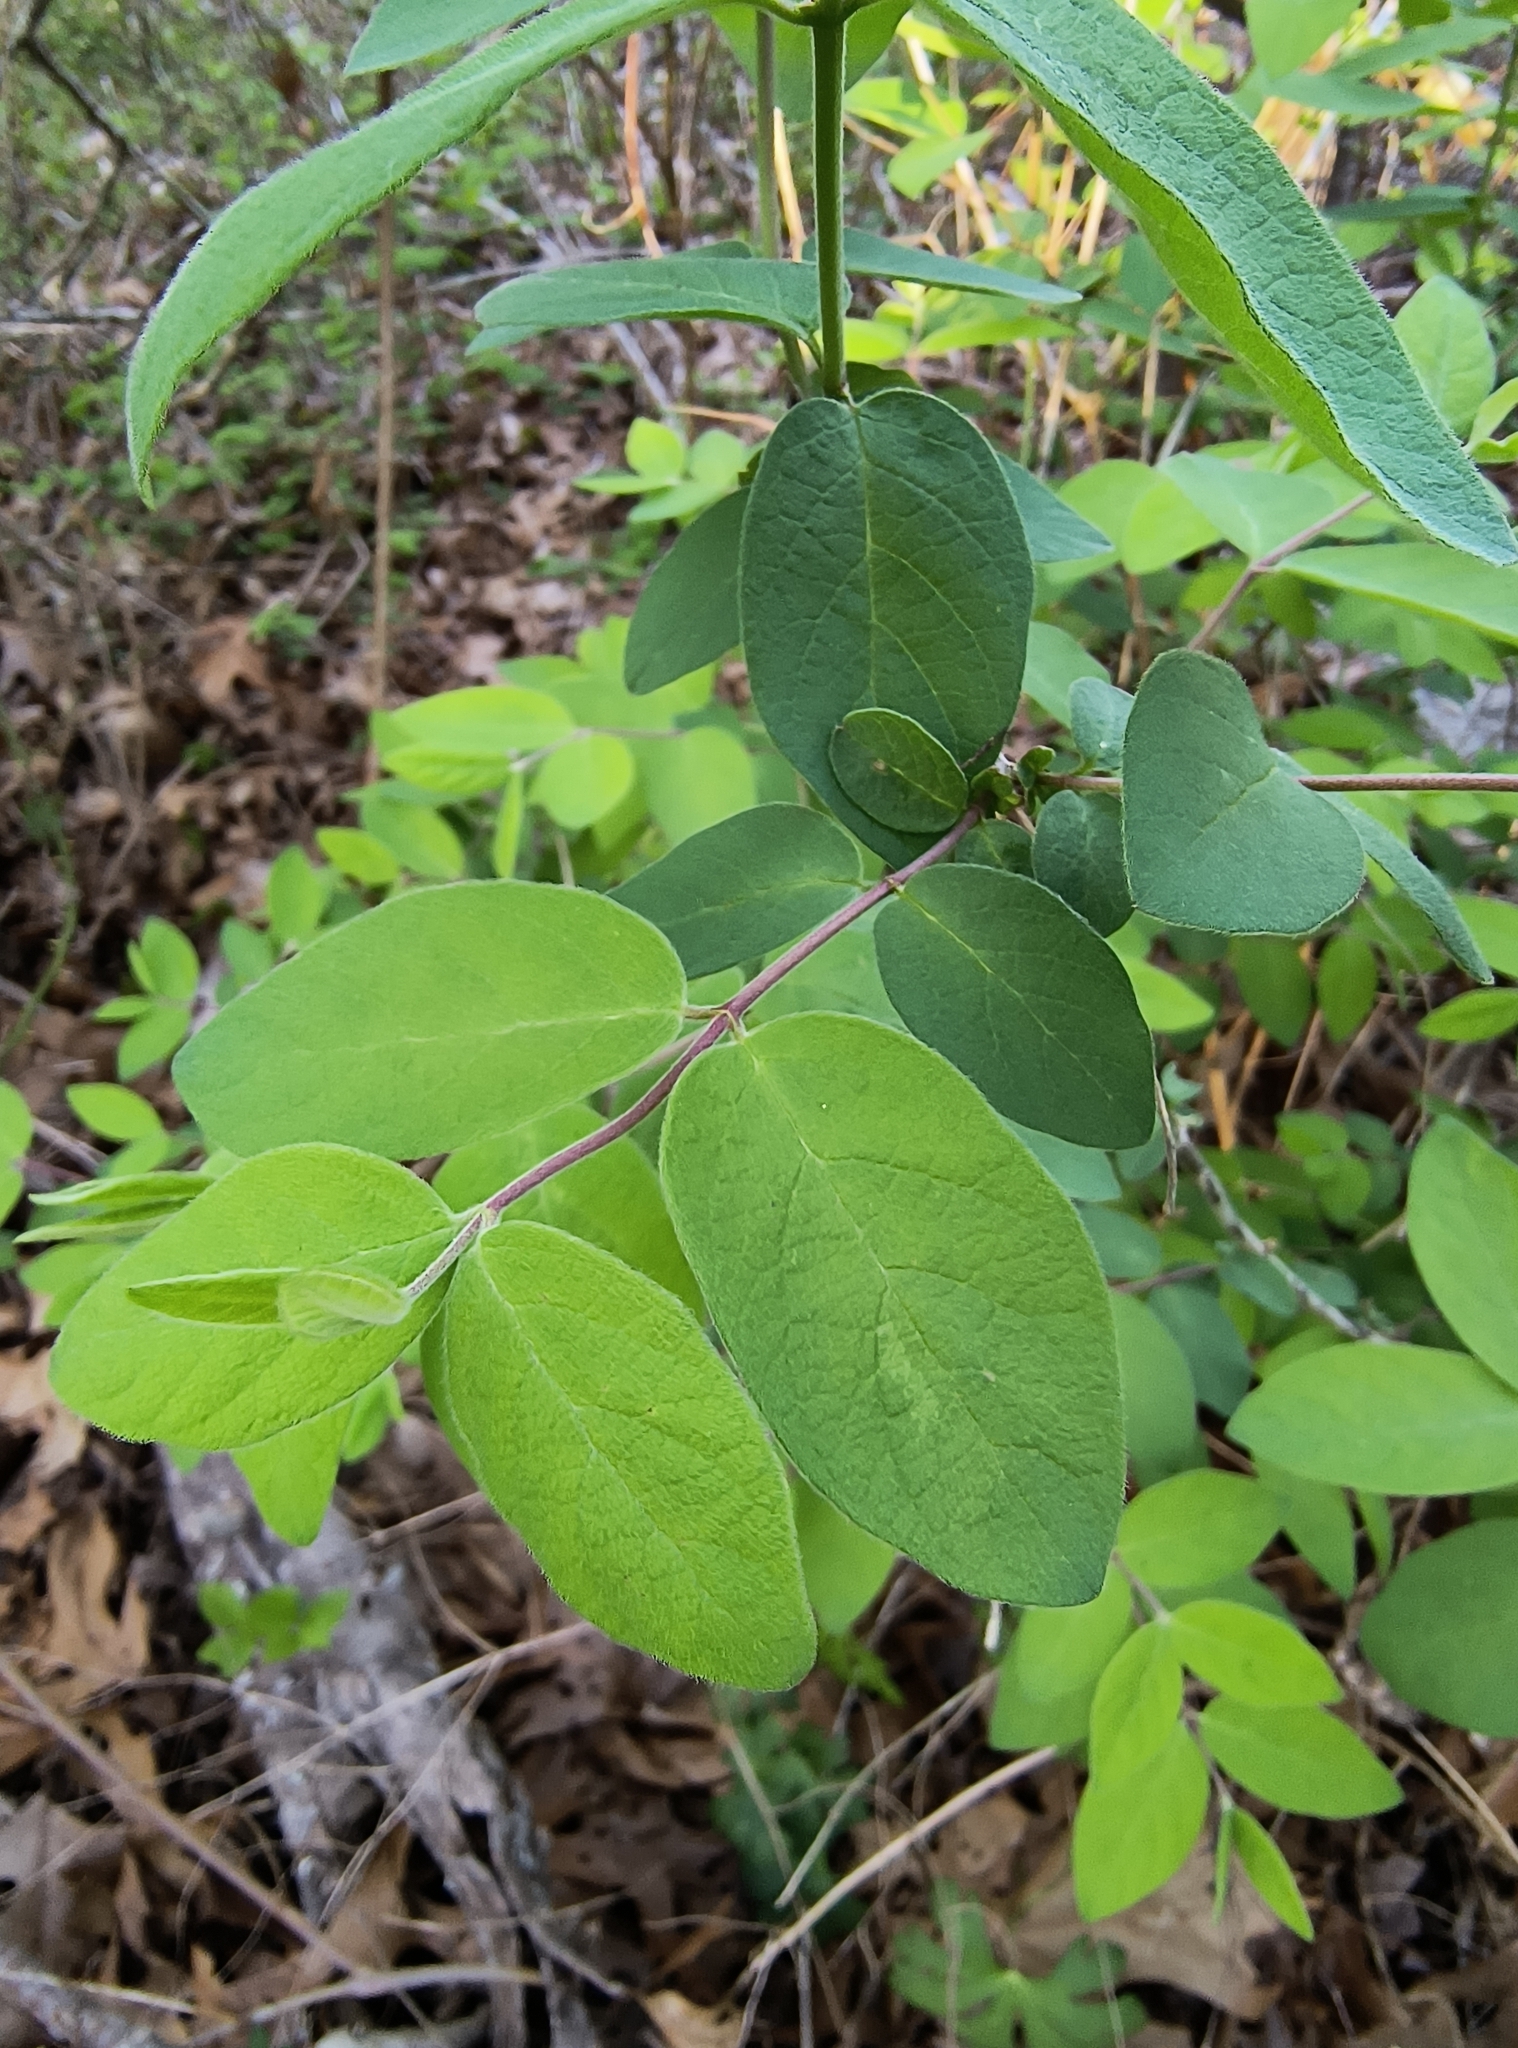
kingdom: Plantae
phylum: Tracheophyta
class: Magnoliopsida
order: Dipsacales
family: Caprifoliaceae
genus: Lonicera
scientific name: Lonicera morrowii
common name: Morrow's honeysuckle
